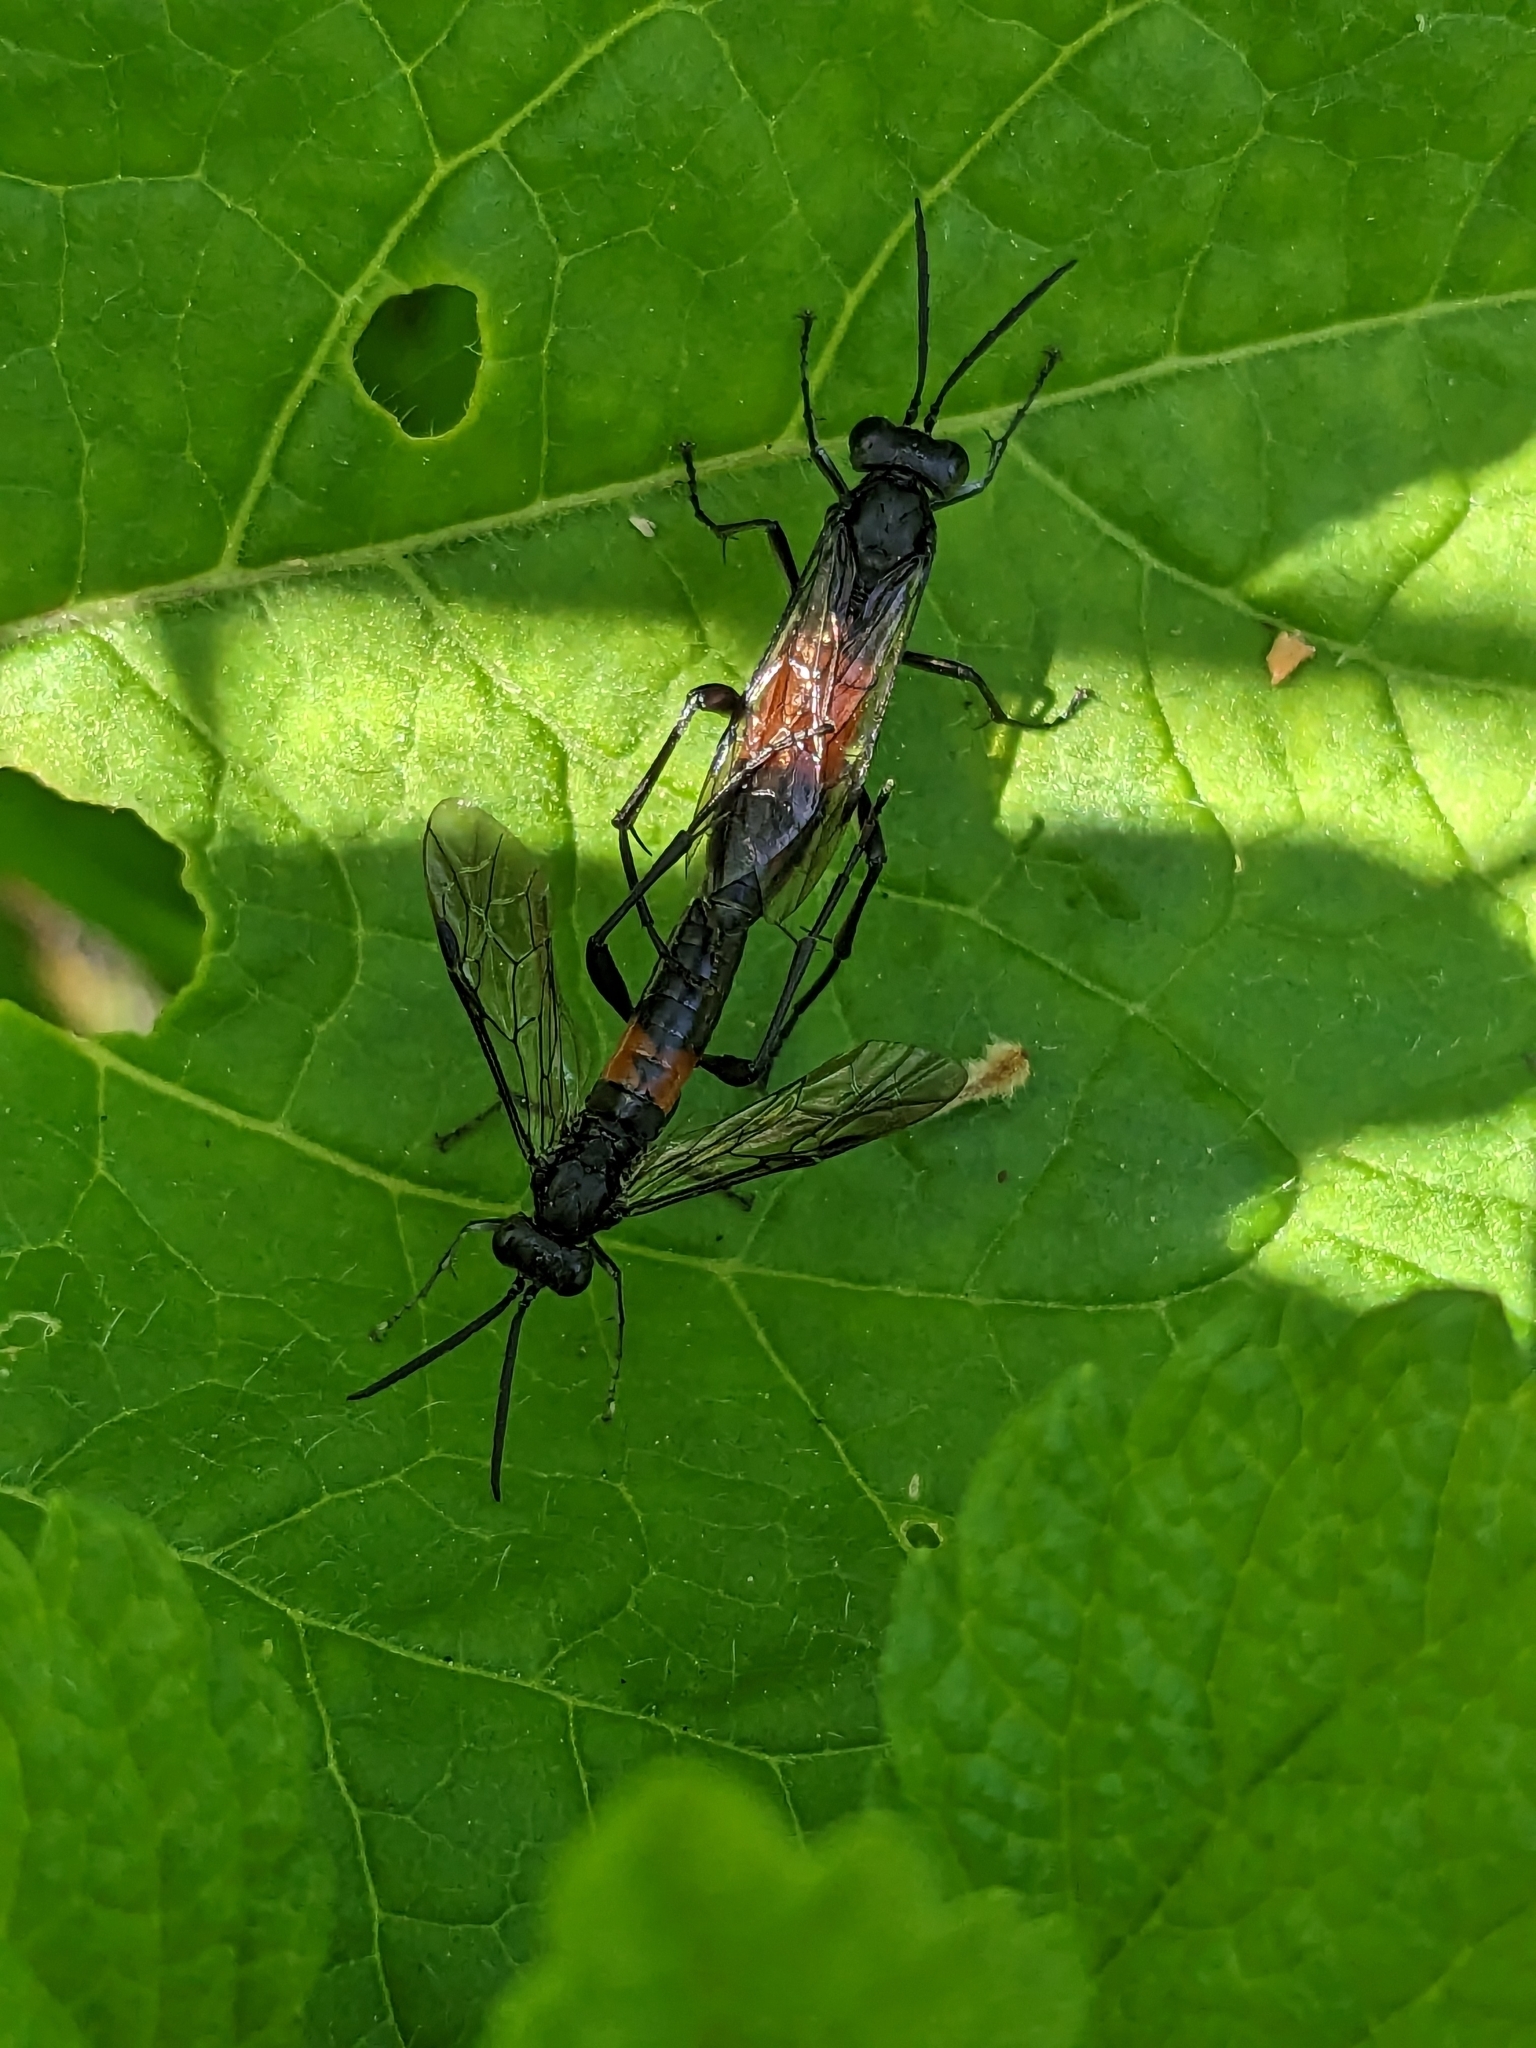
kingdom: Animalia
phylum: Arthropoda
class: Insecta
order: Hymenoptera
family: Tenthredinidae
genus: Macrophya
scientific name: Macrophya annulata
